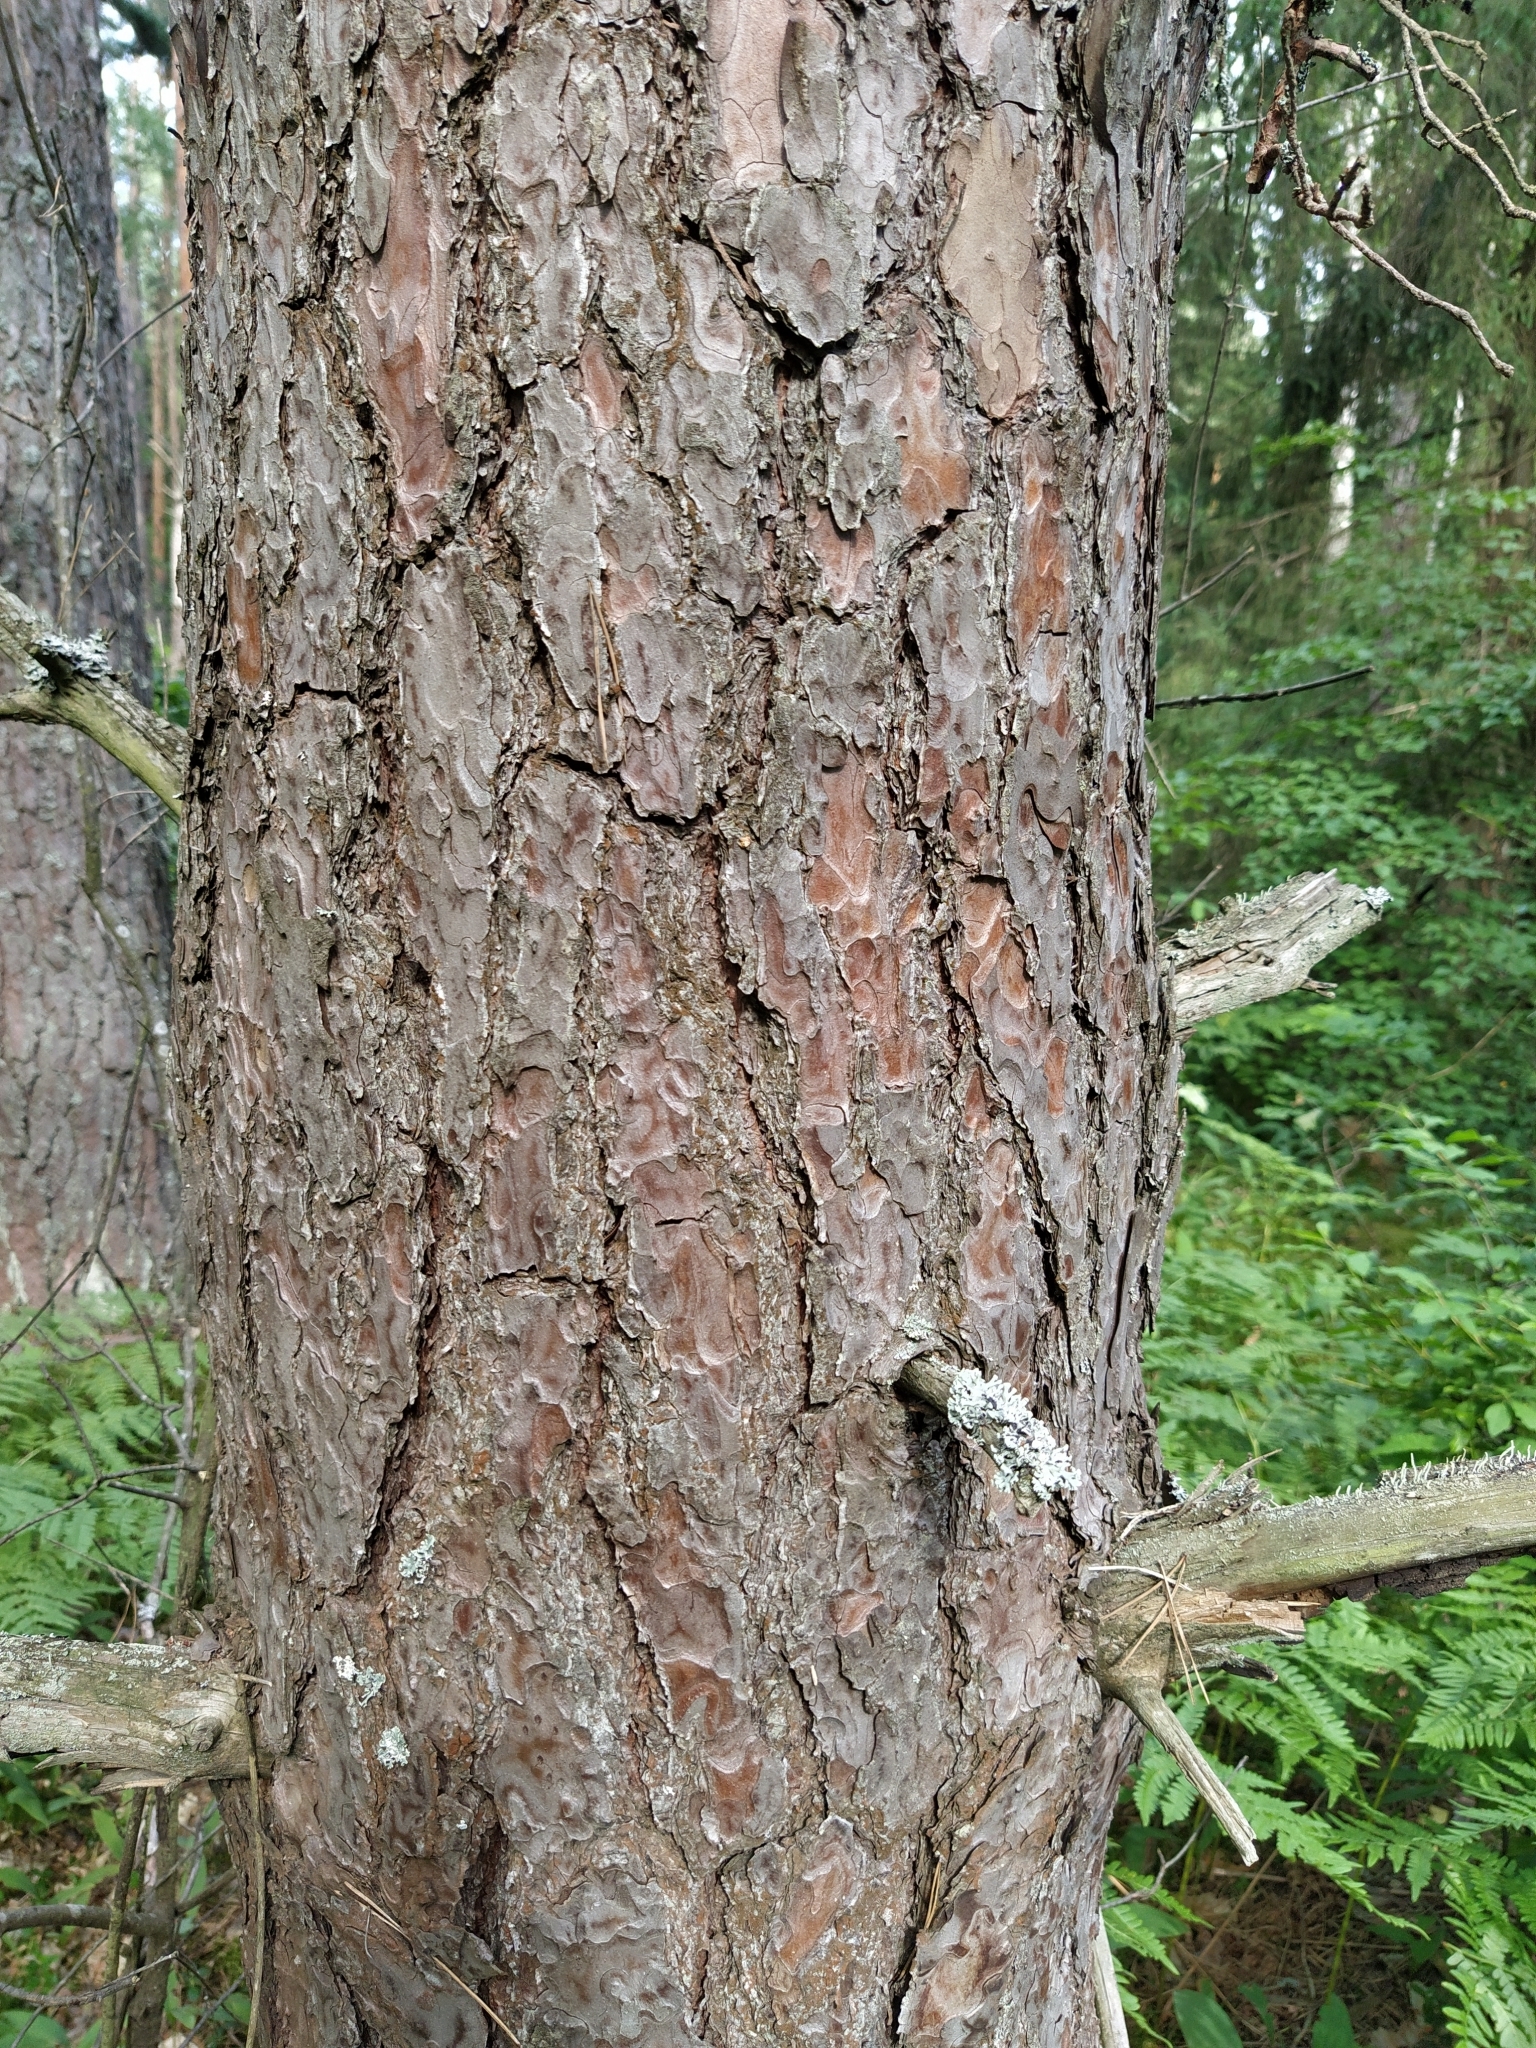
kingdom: Plantae
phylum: Tracheophyta
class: Pinopsida
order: Pinales
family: Pinaceae
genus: Pinus
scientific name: Pinus sylvestris
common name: Scots pine
